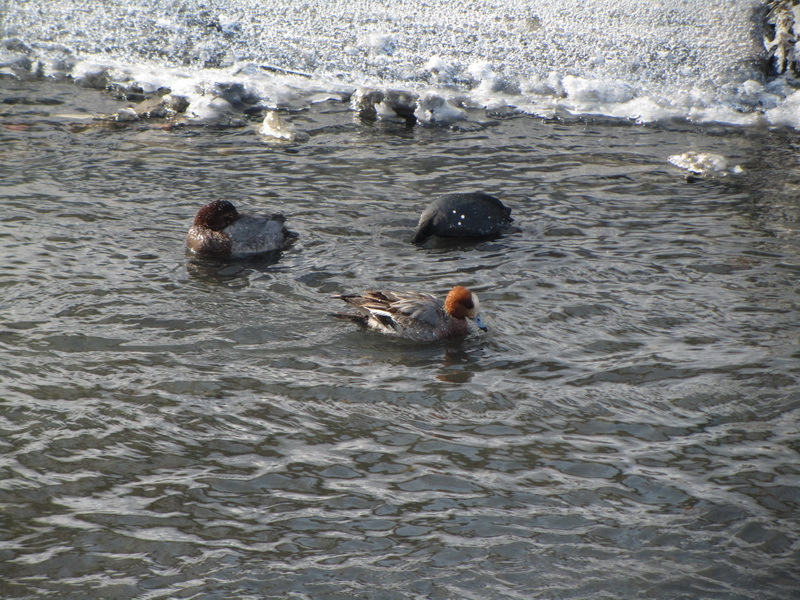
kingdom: Animalia
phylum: Chordata
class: Aves
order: Anseriformes
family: Anatidae
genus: Mareca
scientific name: Mareca penelope
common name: Eurasian wigeon
